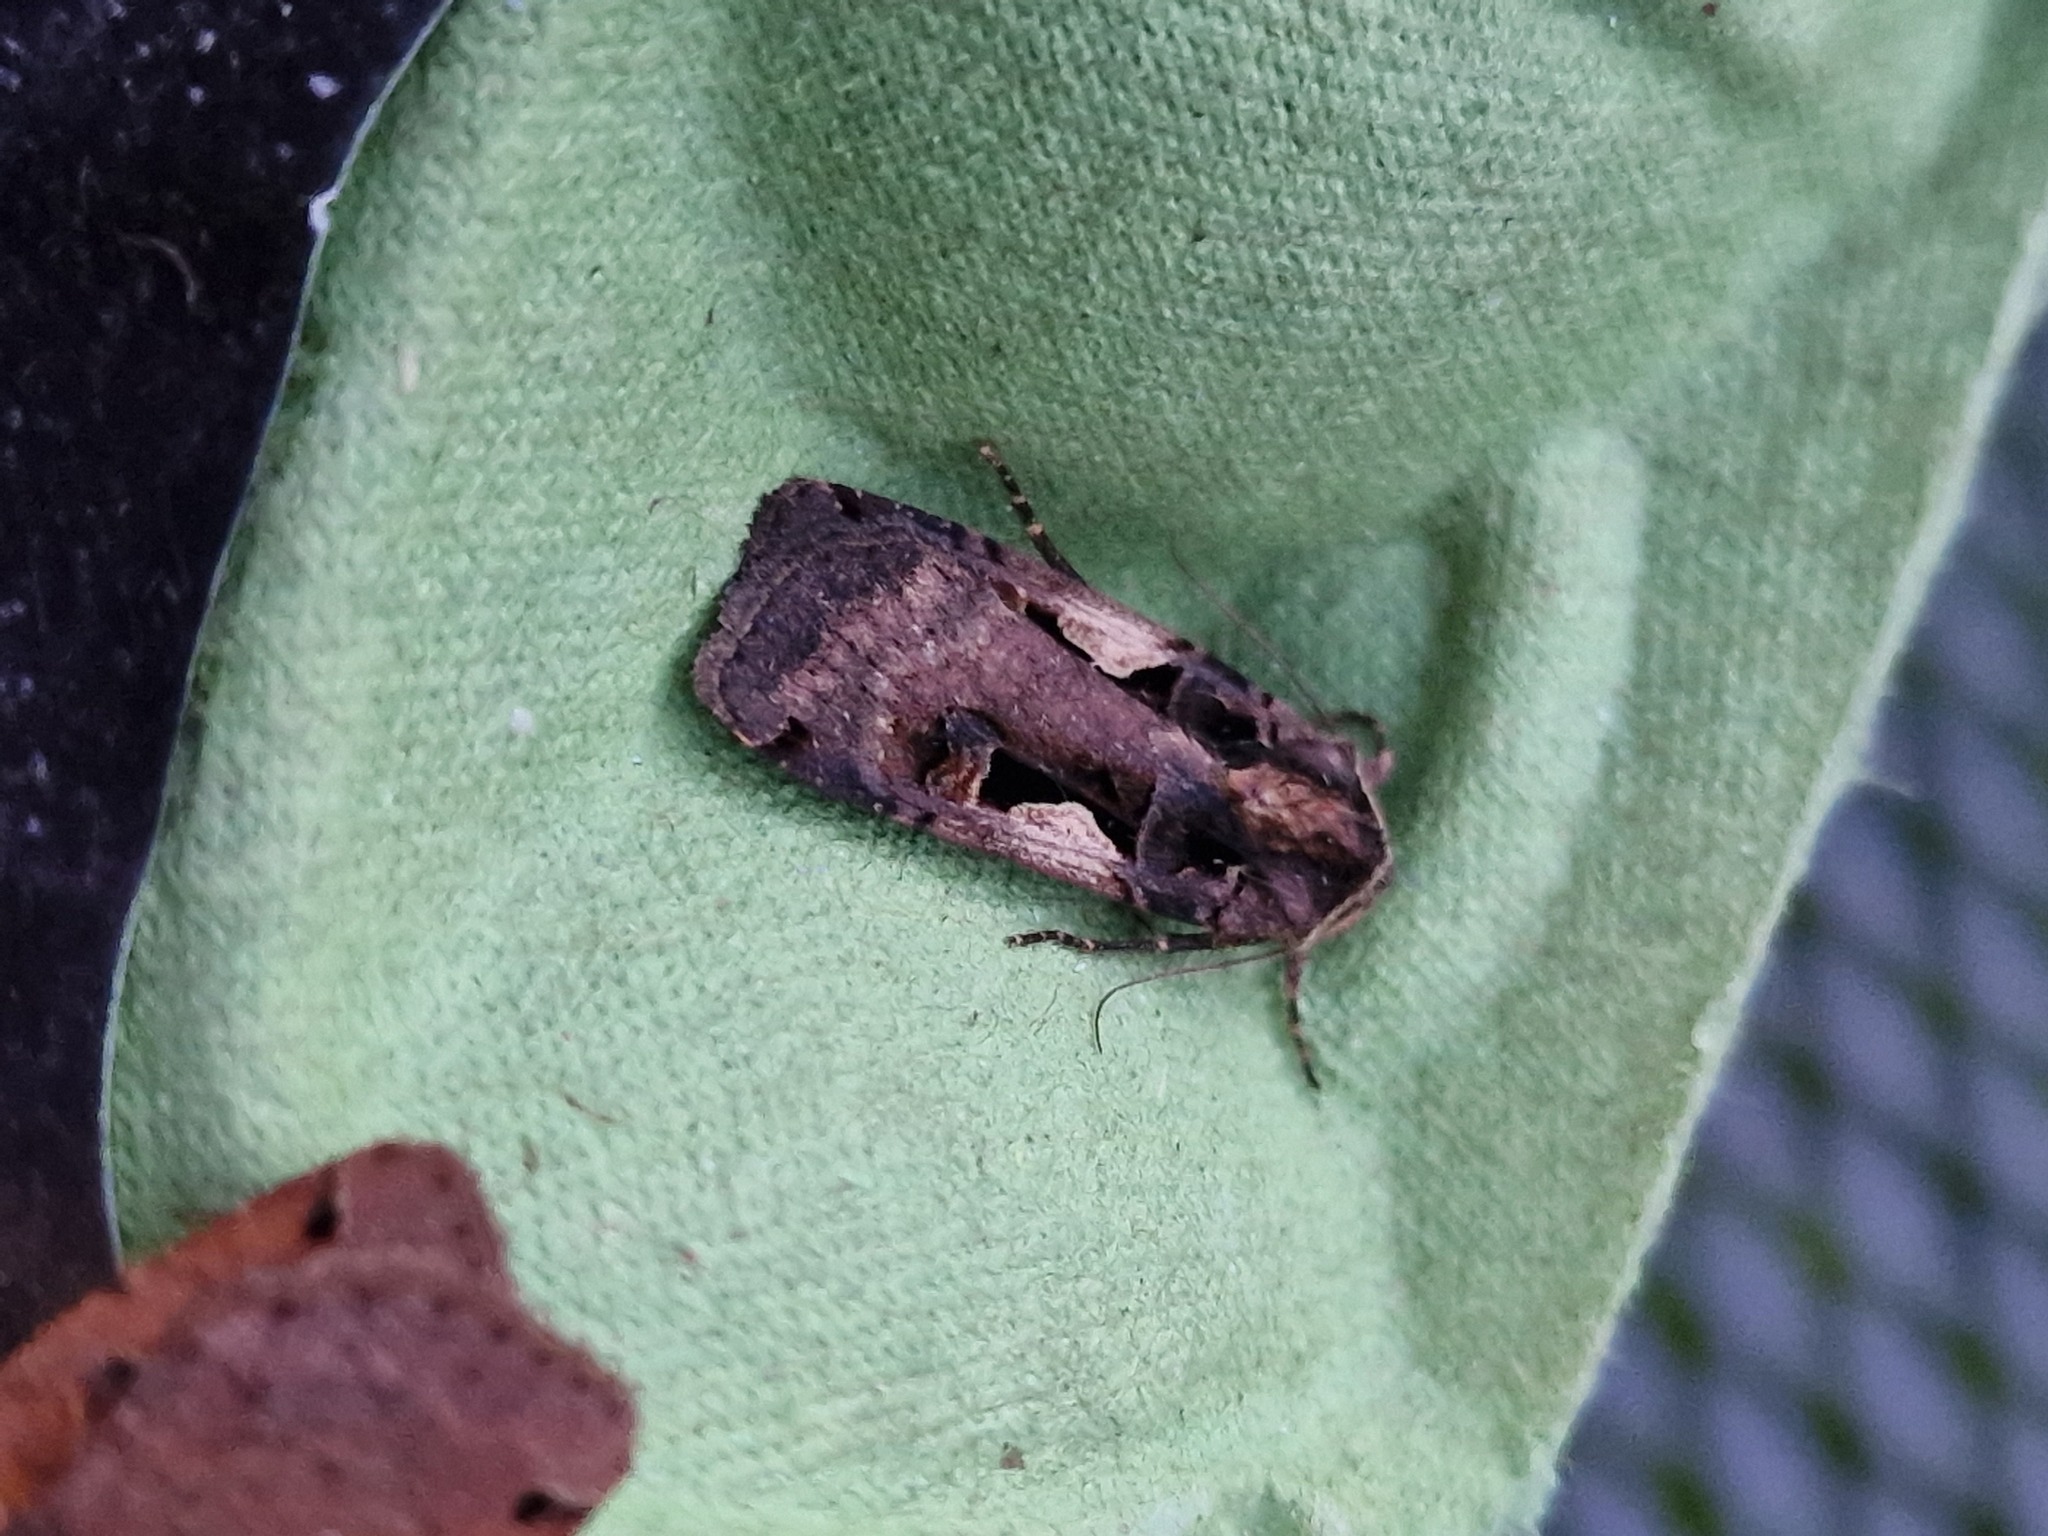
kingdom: Animalia
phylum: Arthropoda
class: Insecta
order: Lepidoptera
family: Noctuidae
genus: Xestia
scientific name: Xestia c-nigrum
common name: Setaceous hebrew character
